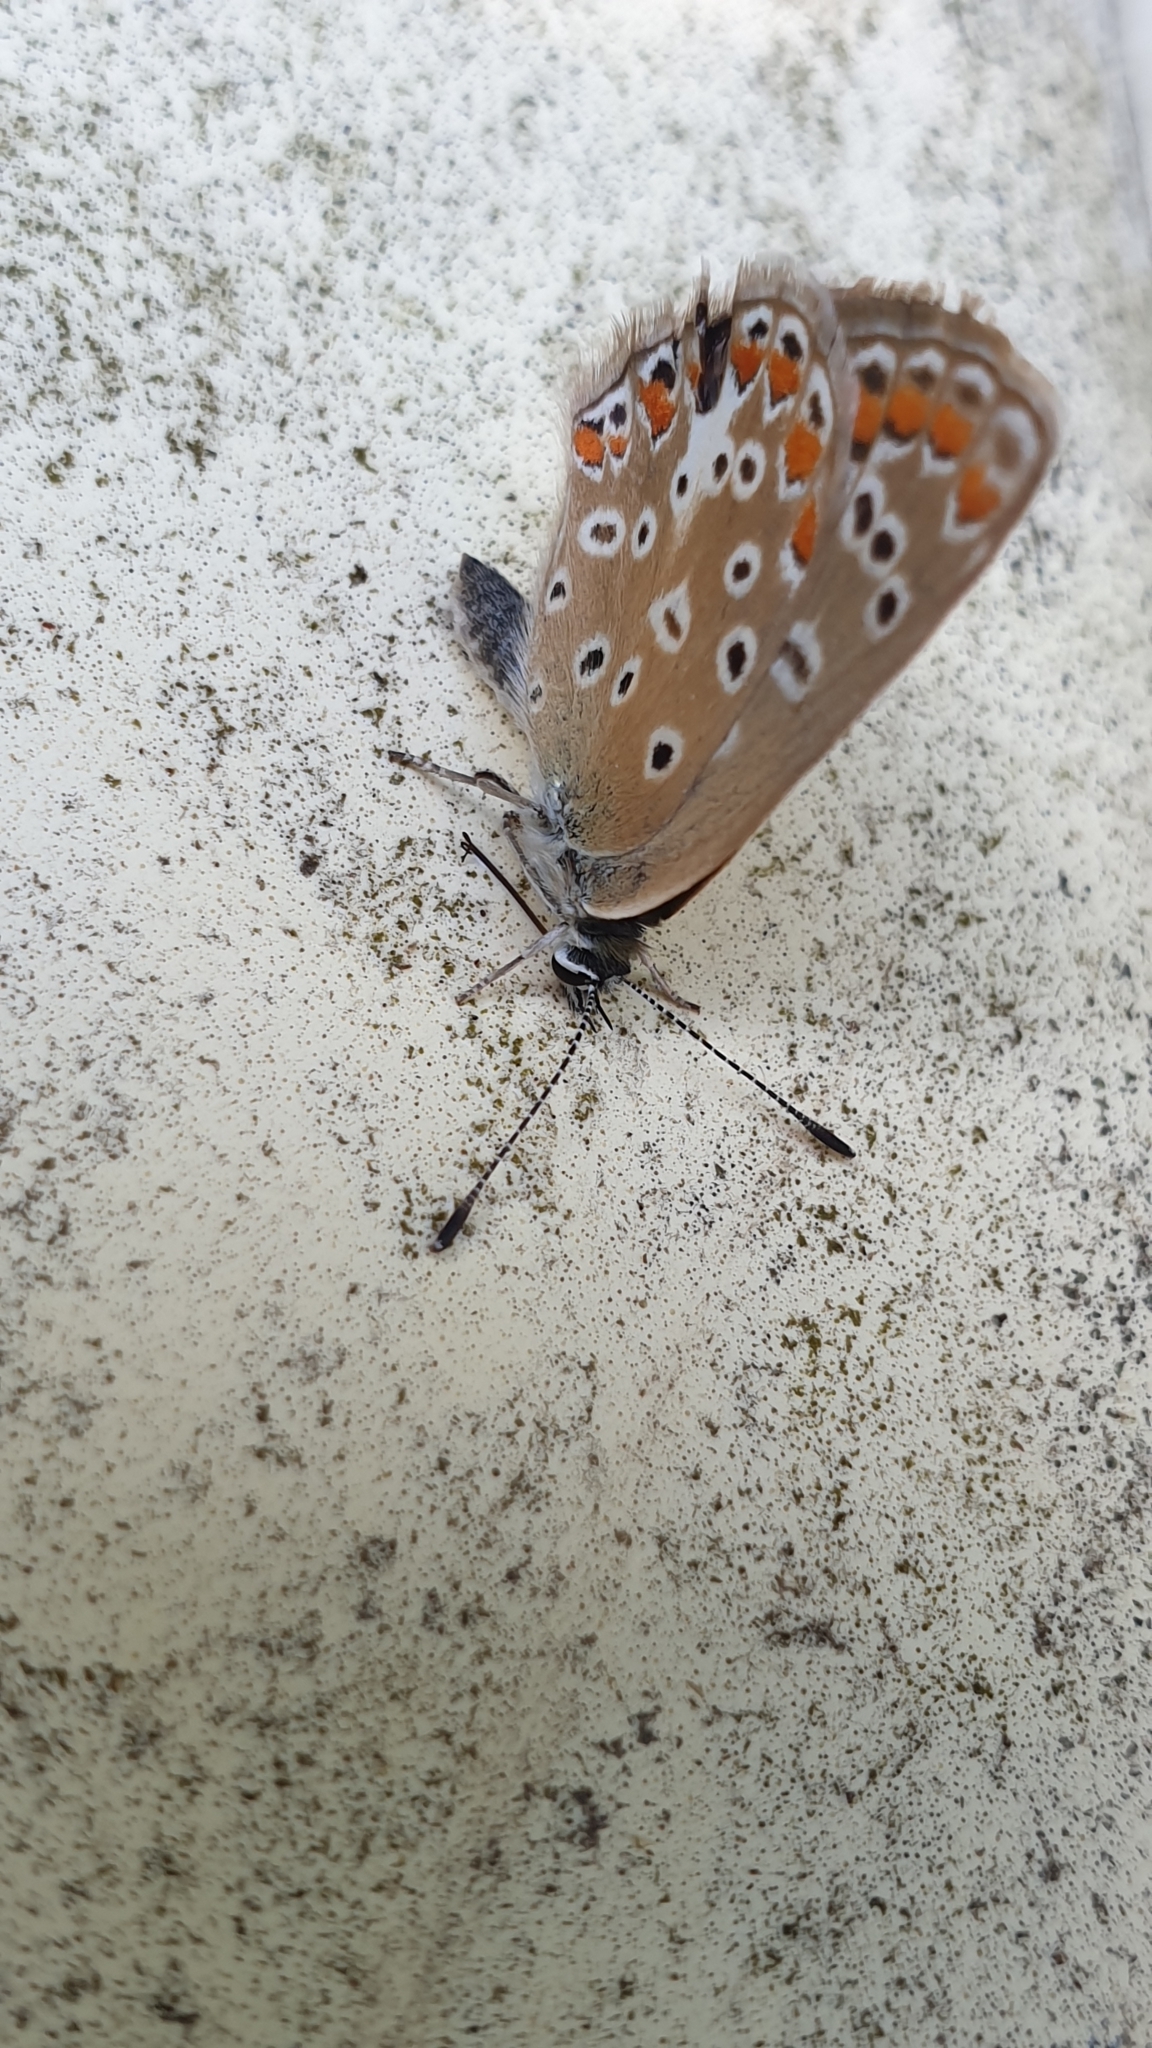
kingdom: Animalia
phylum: Arthropoda
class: Insecta
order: Lepidoptera
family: Lycaenidae
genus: Polyommatus
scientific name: Polyommatus icarus
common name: Common blue
